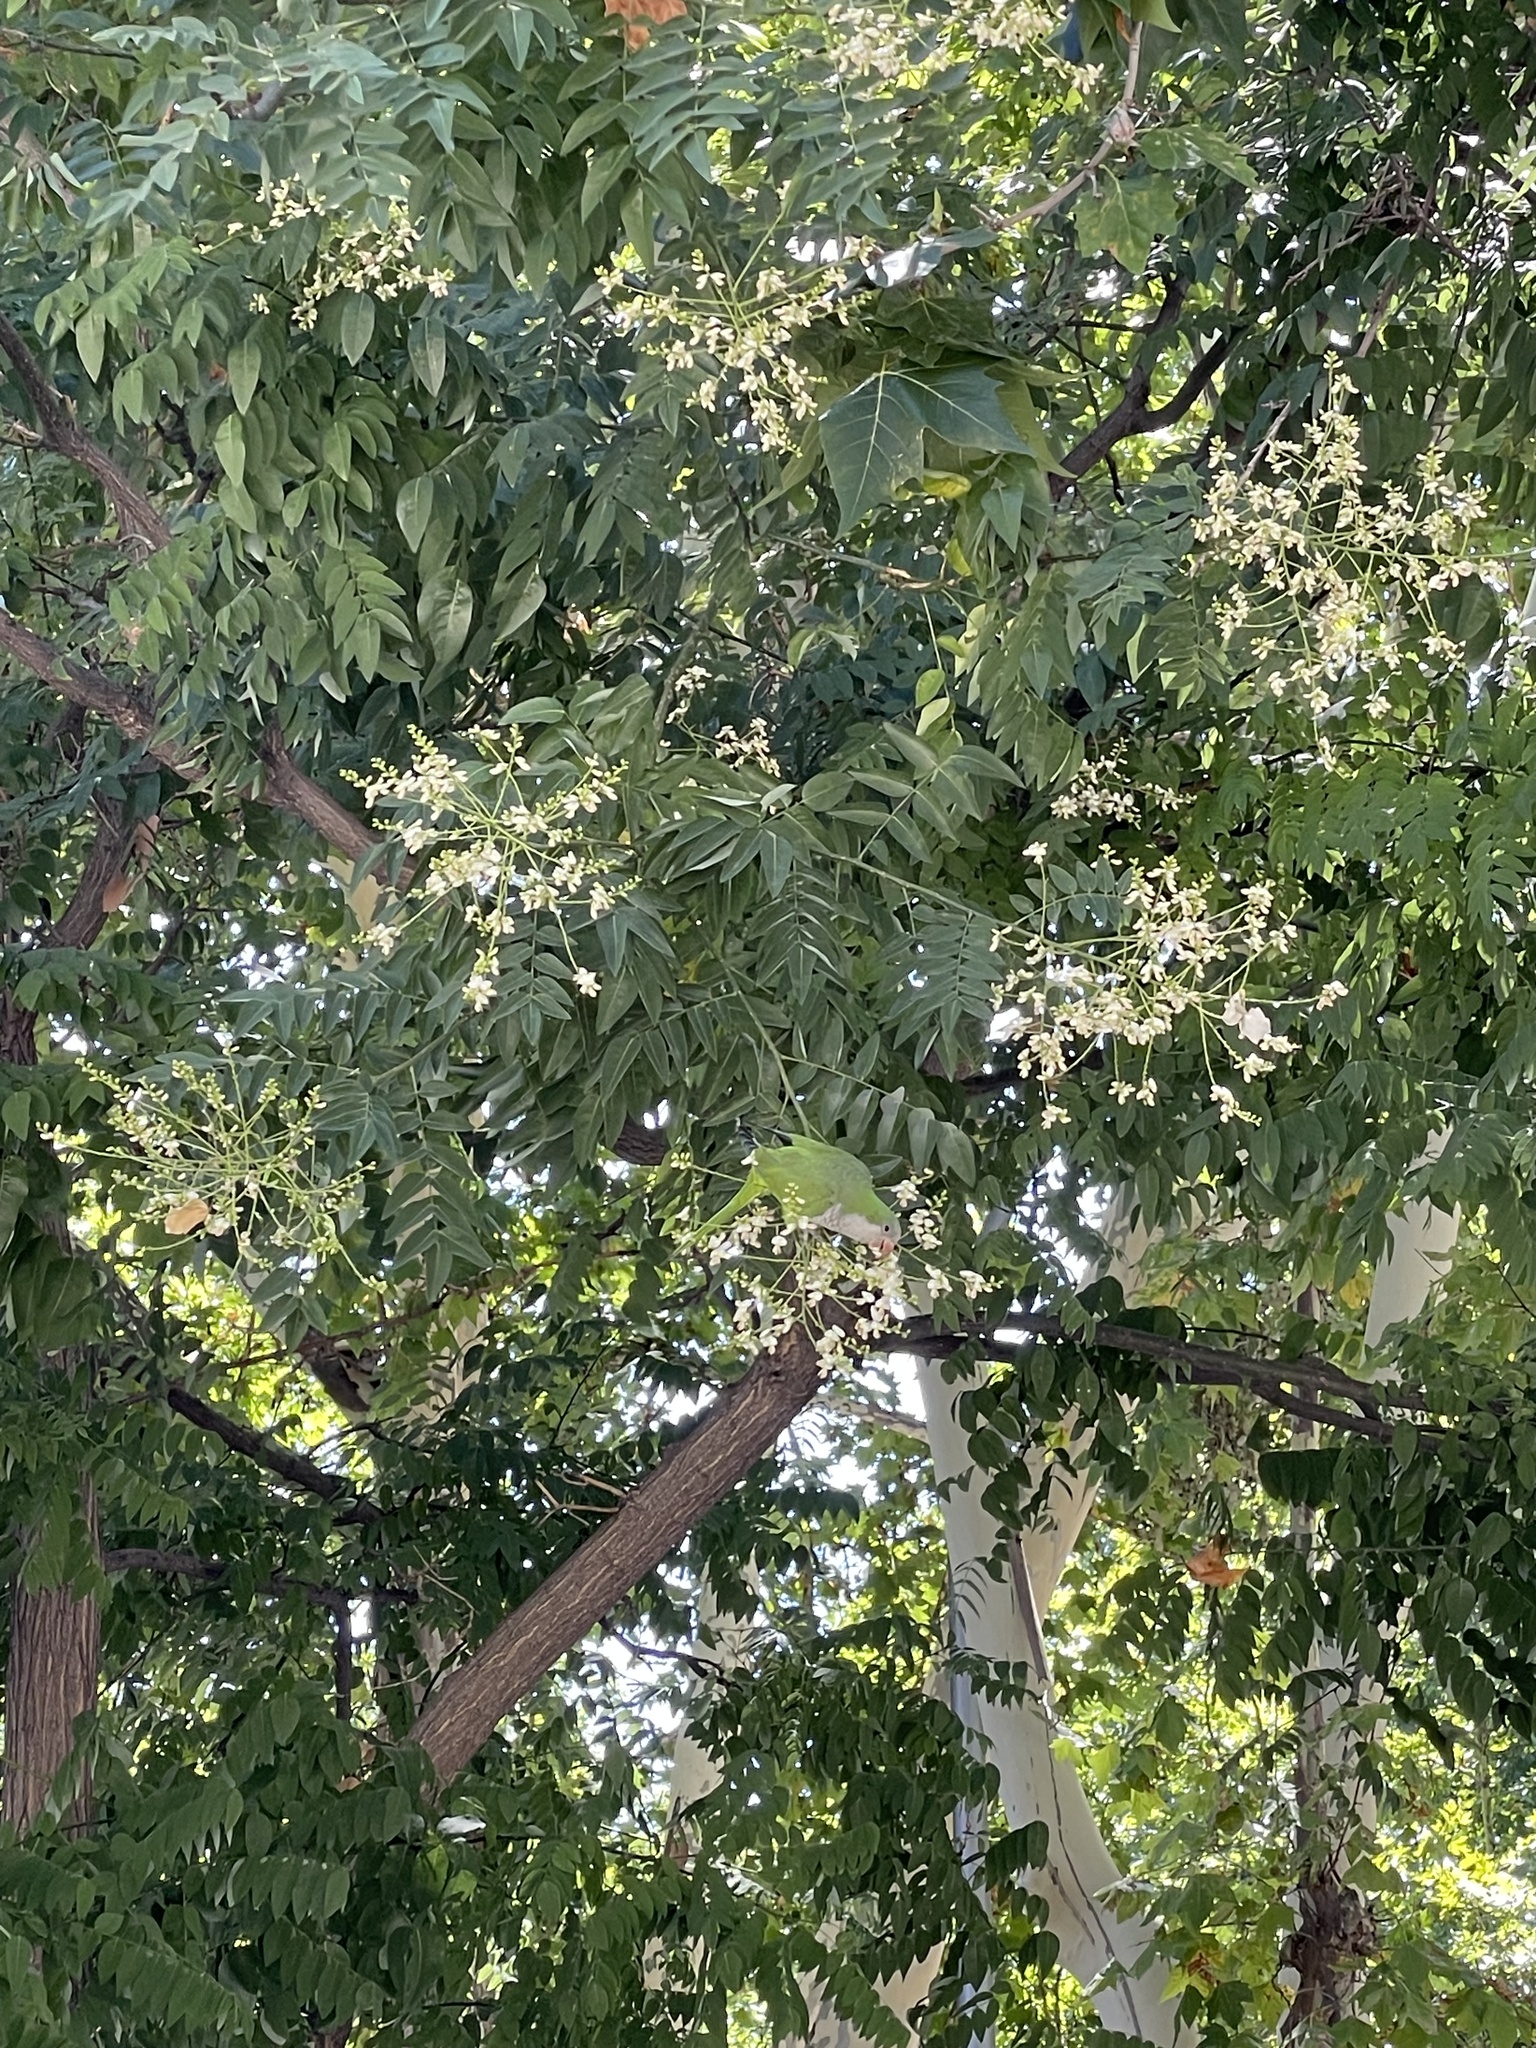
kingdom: Animalia
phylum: Chordata
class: Aves
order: Psittaciformes
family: Psittacidae
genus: Myiopsitta
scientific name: Myiopsitta monachus
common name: Monk parakeet
